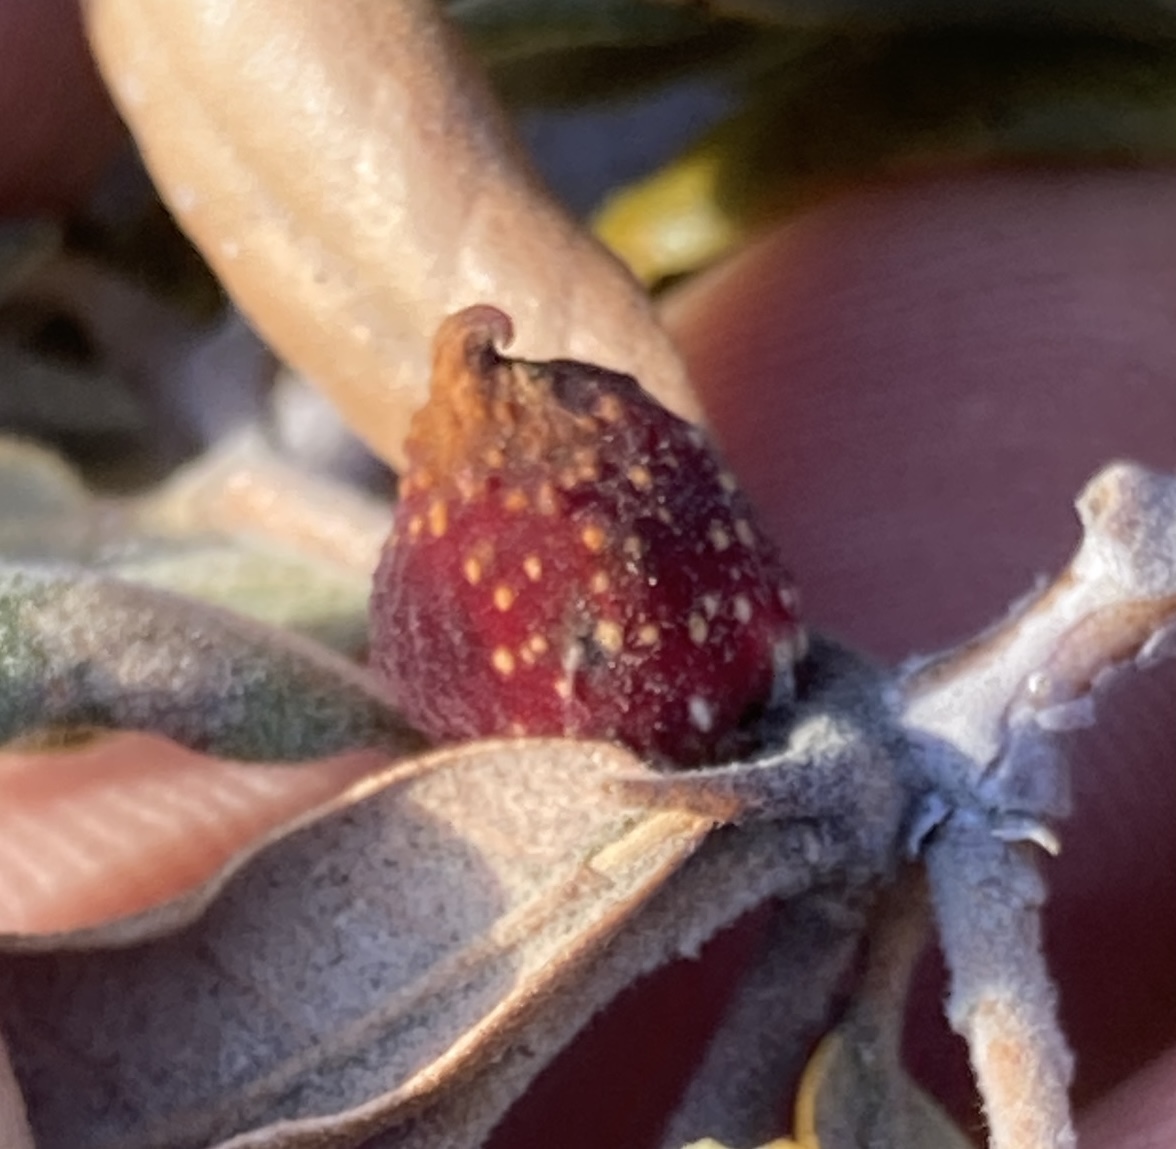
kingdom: Animalia
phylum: Arthropoda
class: Insecta
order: Hymenoptera
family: Cynipidae
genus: Burnettweldia
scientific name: Burnettweldia
